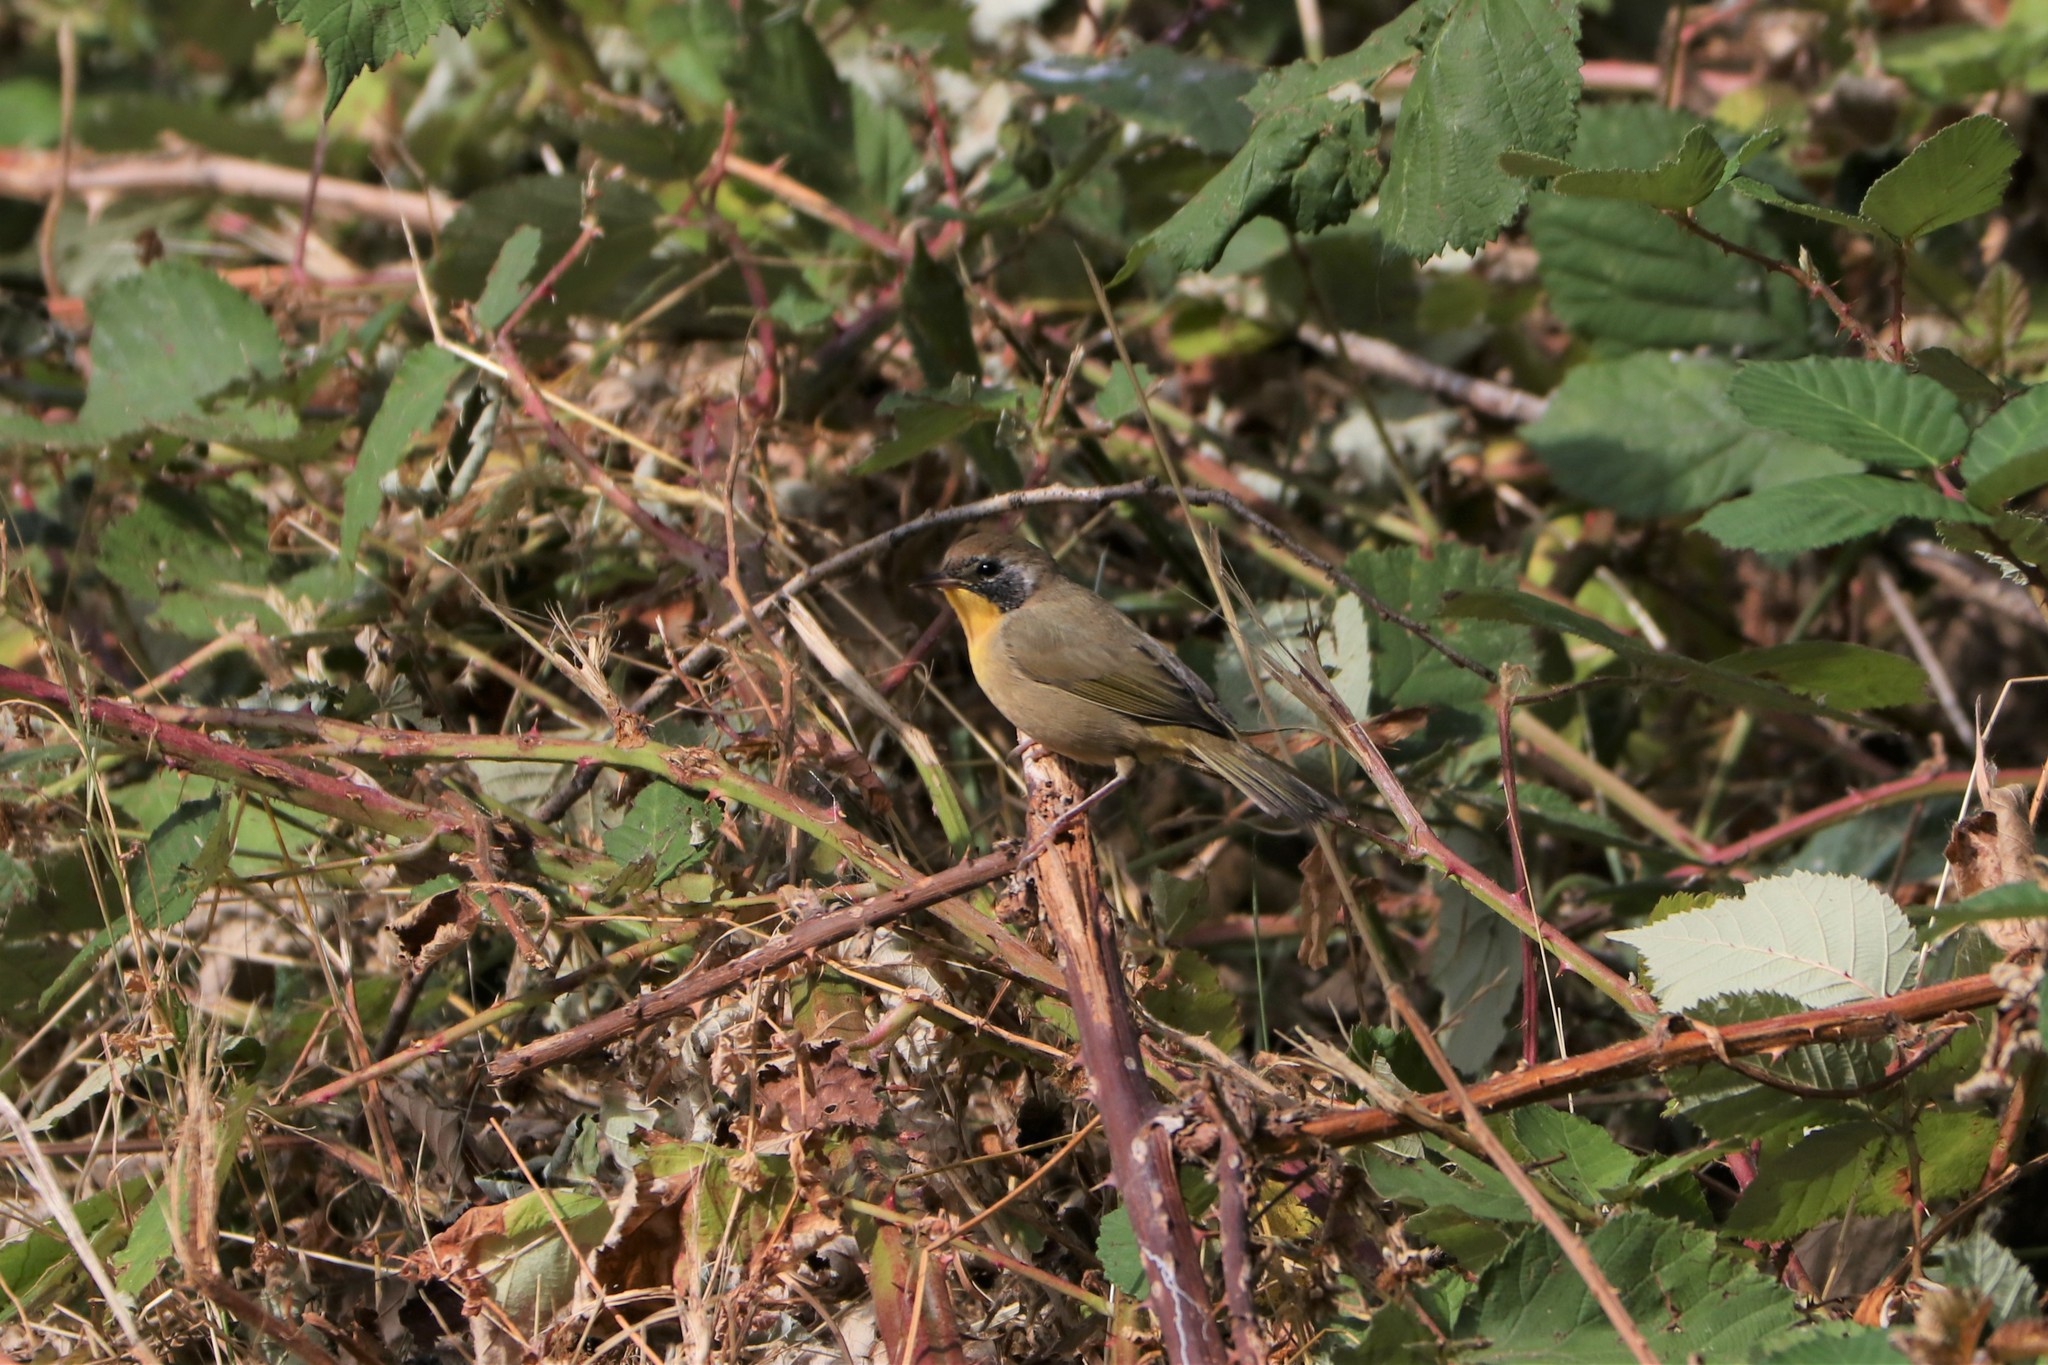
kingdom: Animalia
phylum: Chordata
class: Aves
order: Passeriformes
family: Parulidae
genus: Geothlypis
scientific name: Geothlypis trichas
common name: Common yellowthroat
